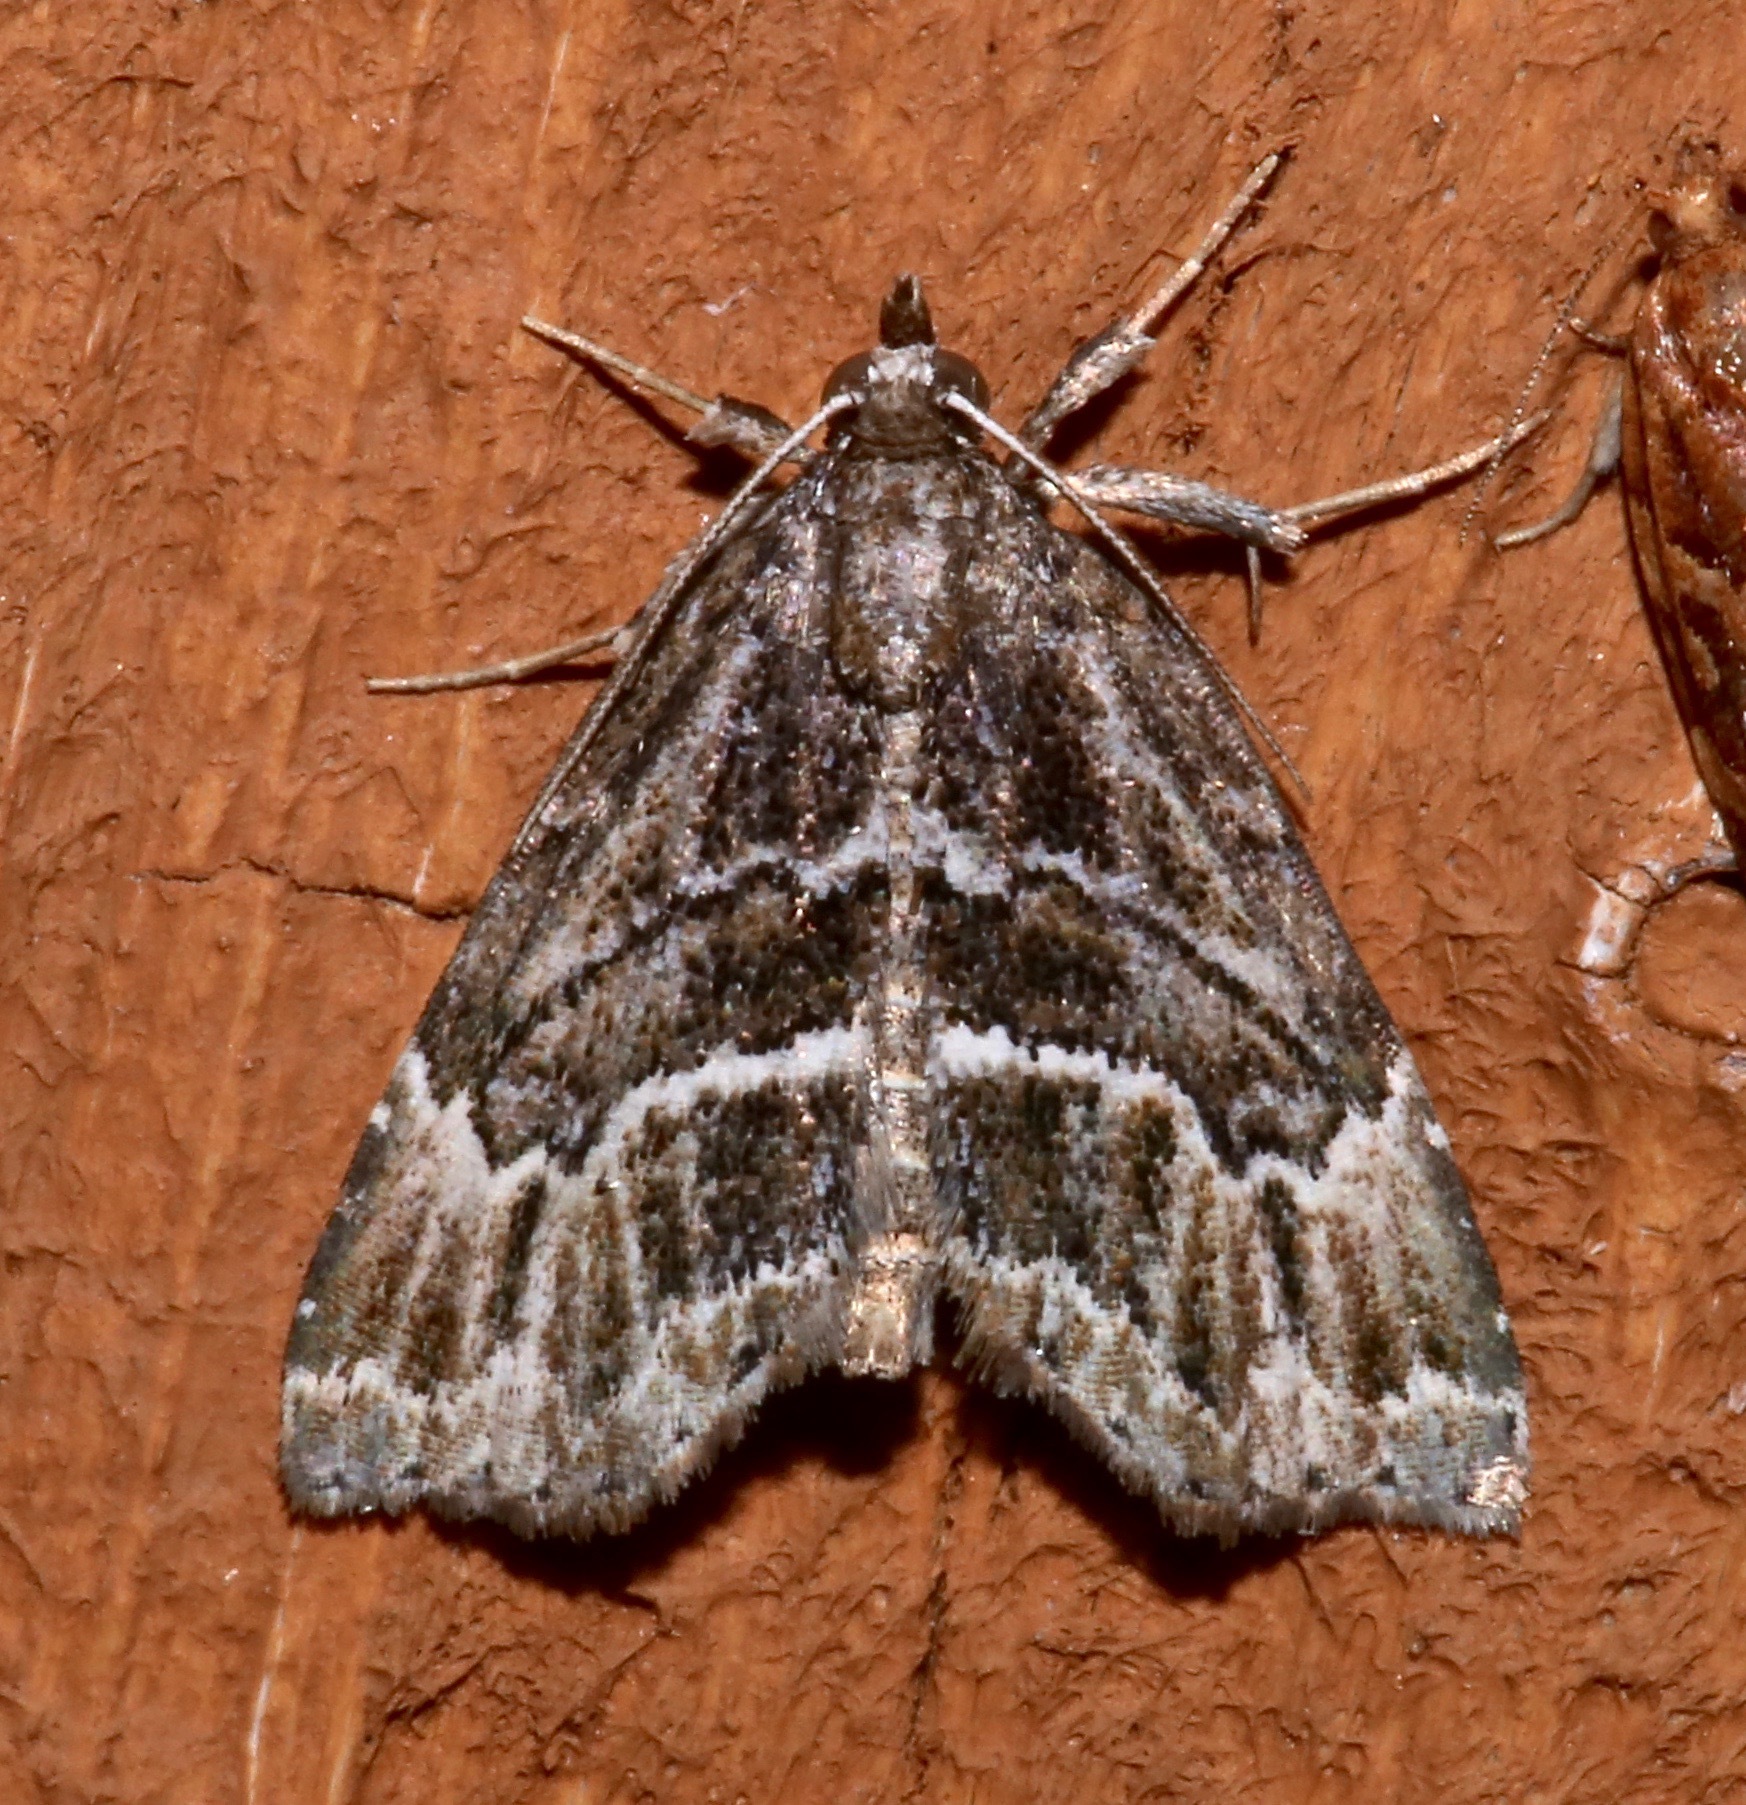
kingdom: Animalia
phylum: Arthropoda
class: Insecta
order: Lepidoptera
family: Erebidae
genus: Cutina
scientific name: Cutina arcuata
